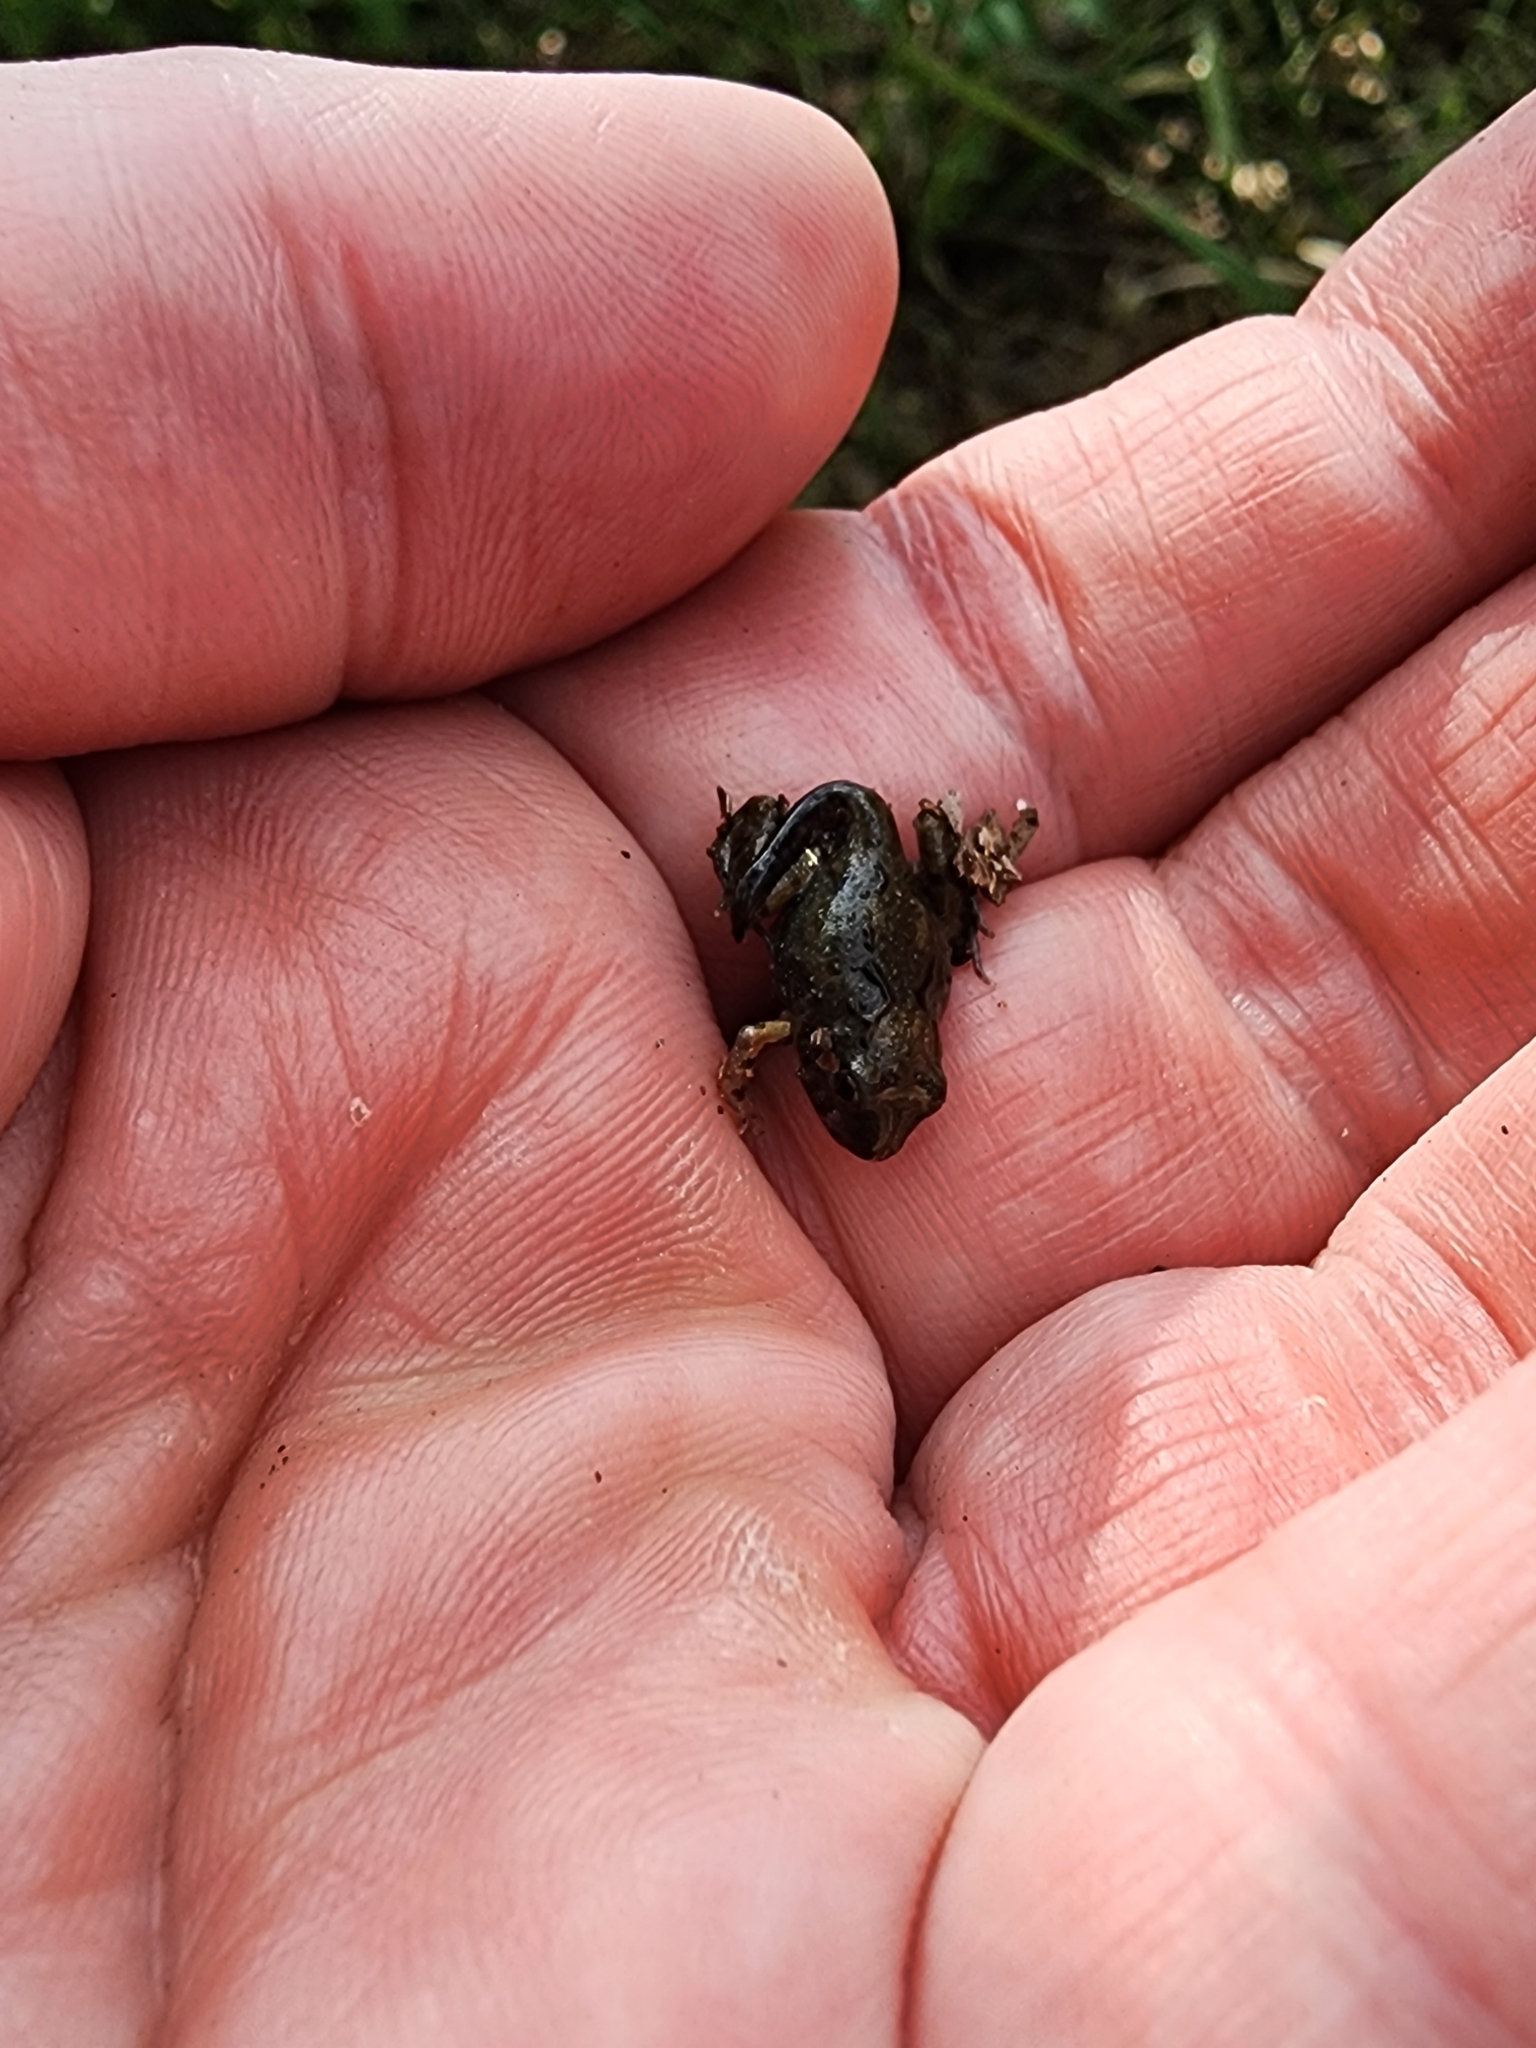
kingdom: Animalia
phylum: Chordata
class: Amphibia
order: Anura
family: Limnodynastidae
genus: Platyplectrum
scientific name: Platyplectrum ornatum
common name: Ornate burrowing frog
